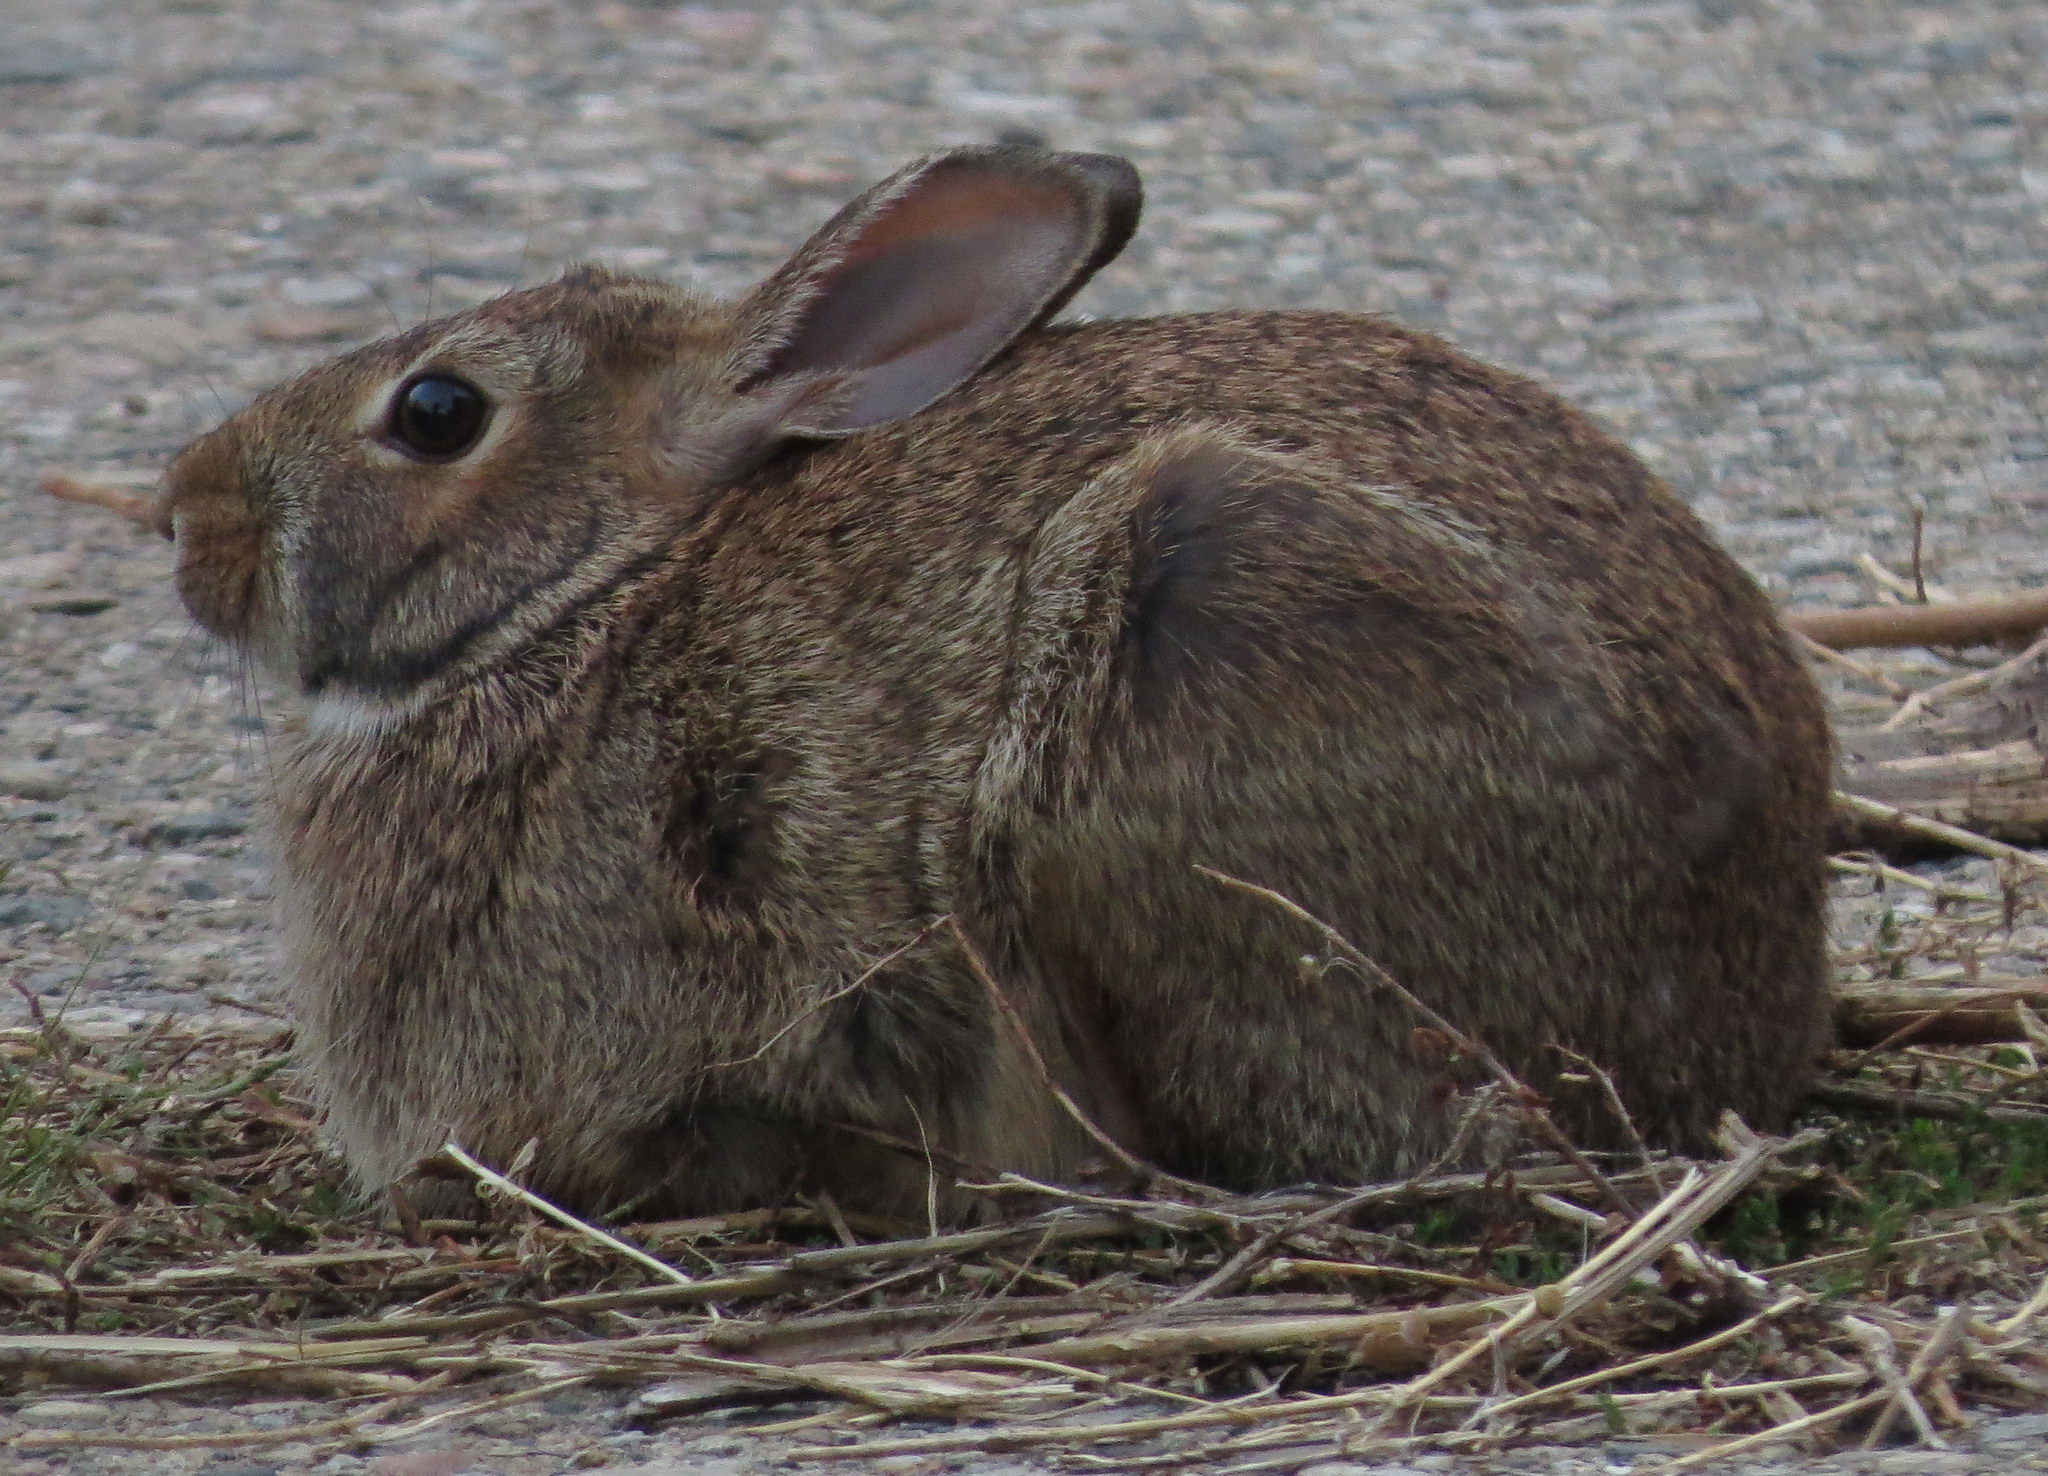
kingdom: Animalia
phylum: Chordata
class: Mammalia
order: Lagomorpha
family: Leporidae
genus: Sylvilagus
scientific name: Sylvilagus floridanus
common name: Eastern cottontail
